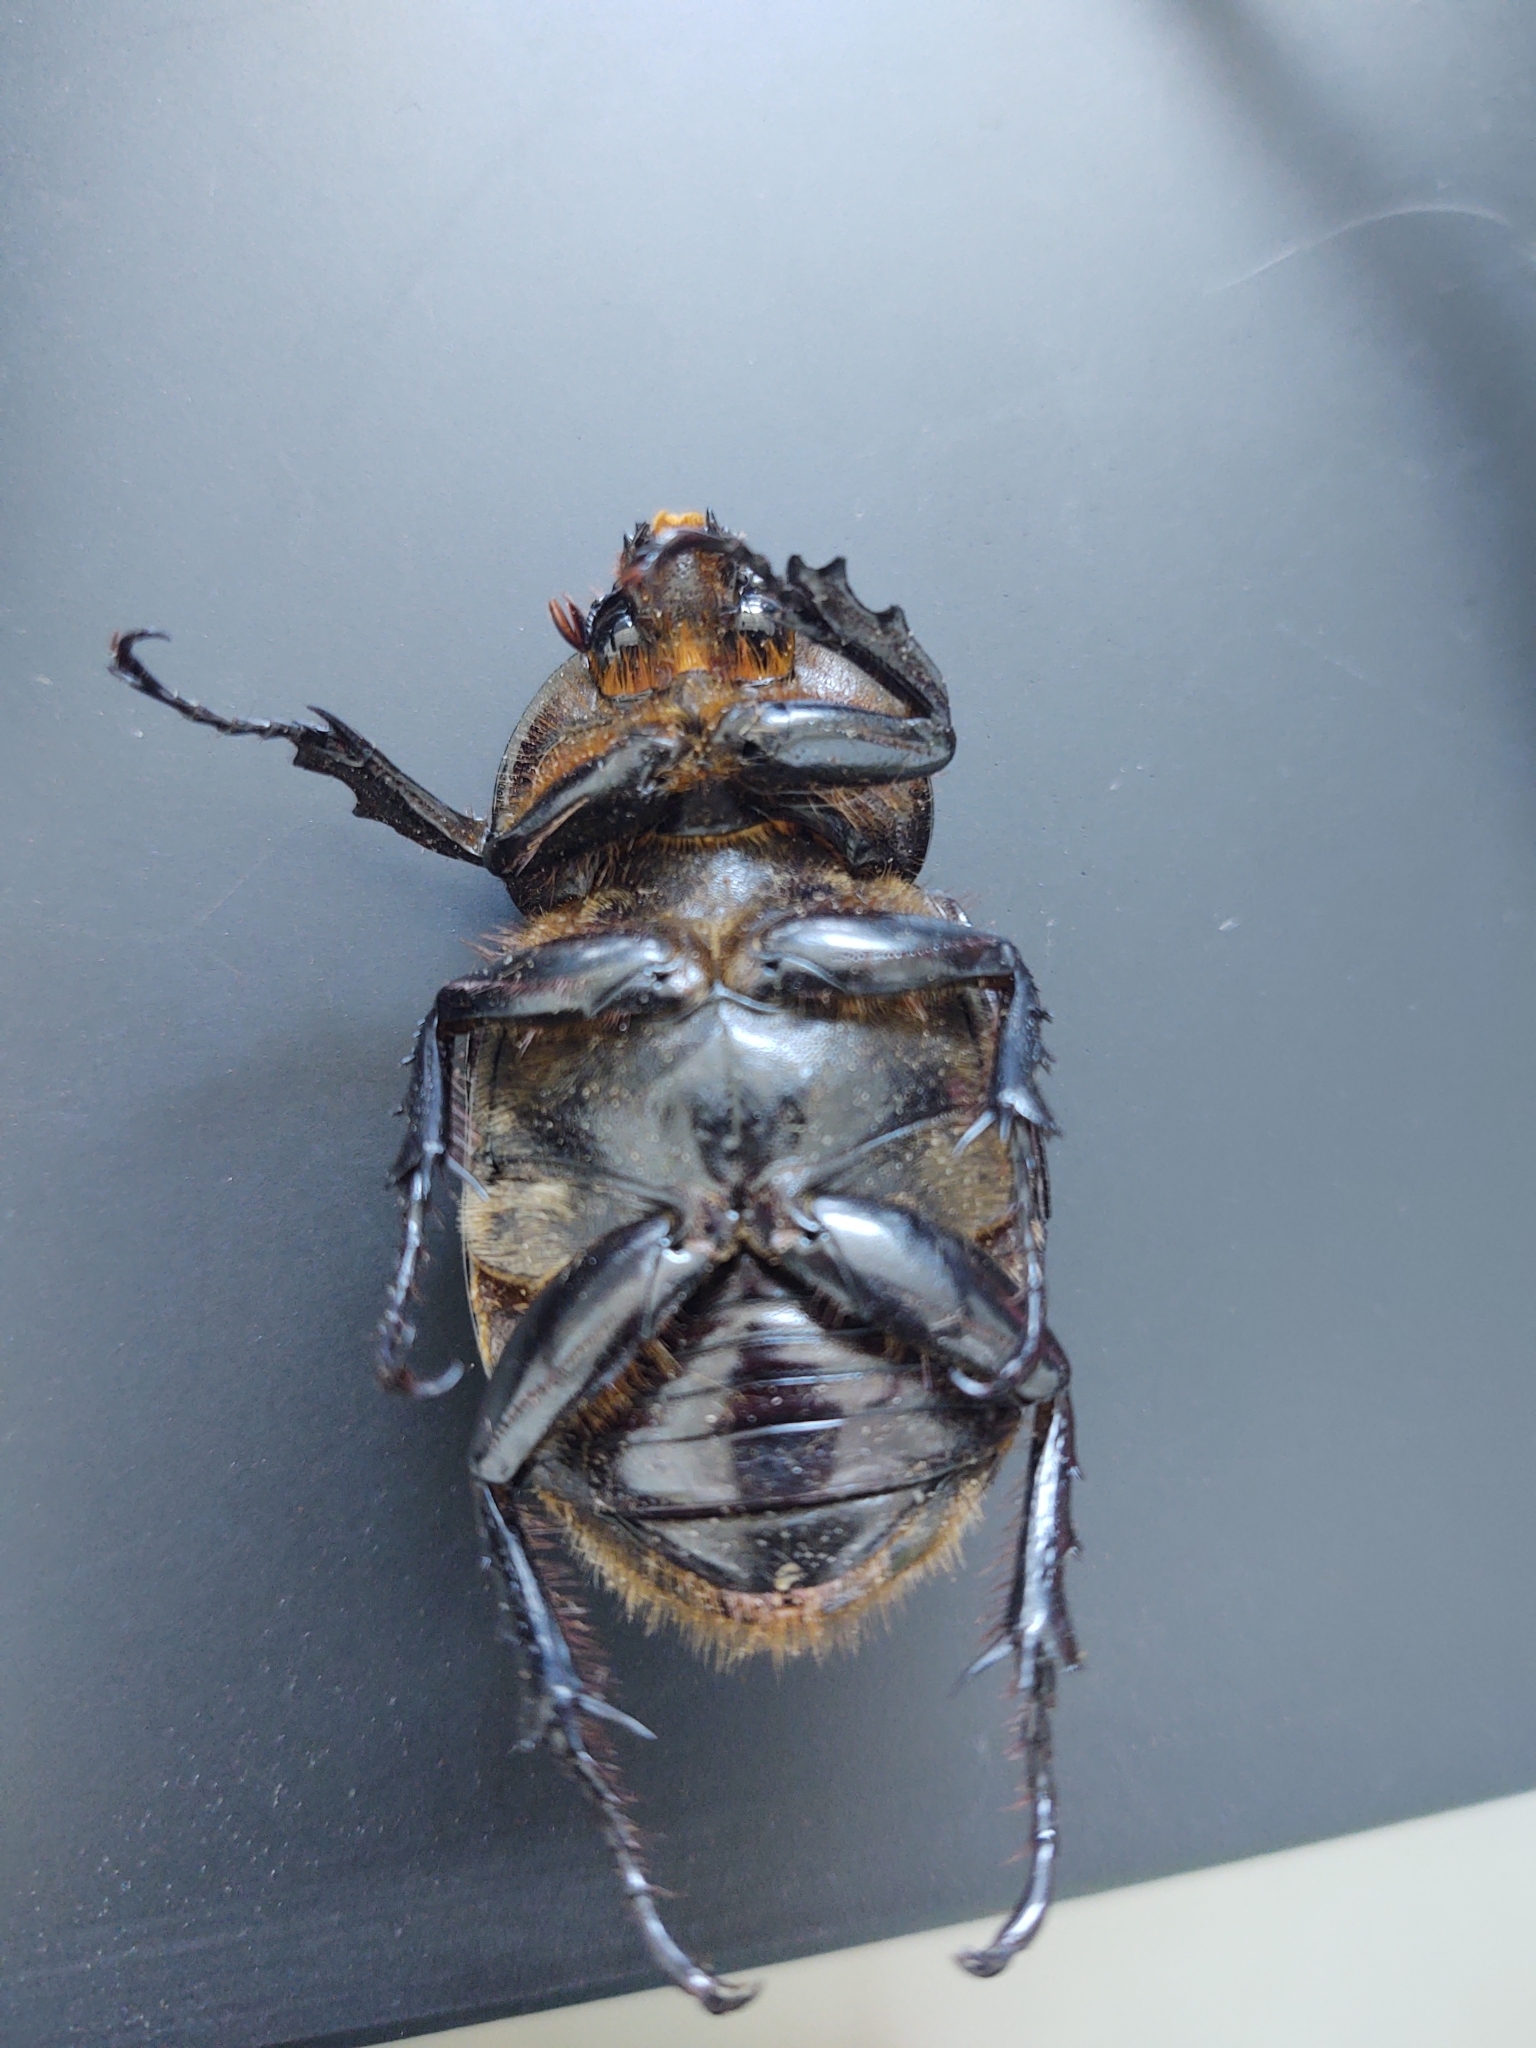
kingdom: Animalia
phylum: Arthropoda
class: Insecta
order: Coleoptera
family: Scarabaeidae
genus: Dynastes
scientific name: Dynastes tityus
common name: Eastern hercules beetle
